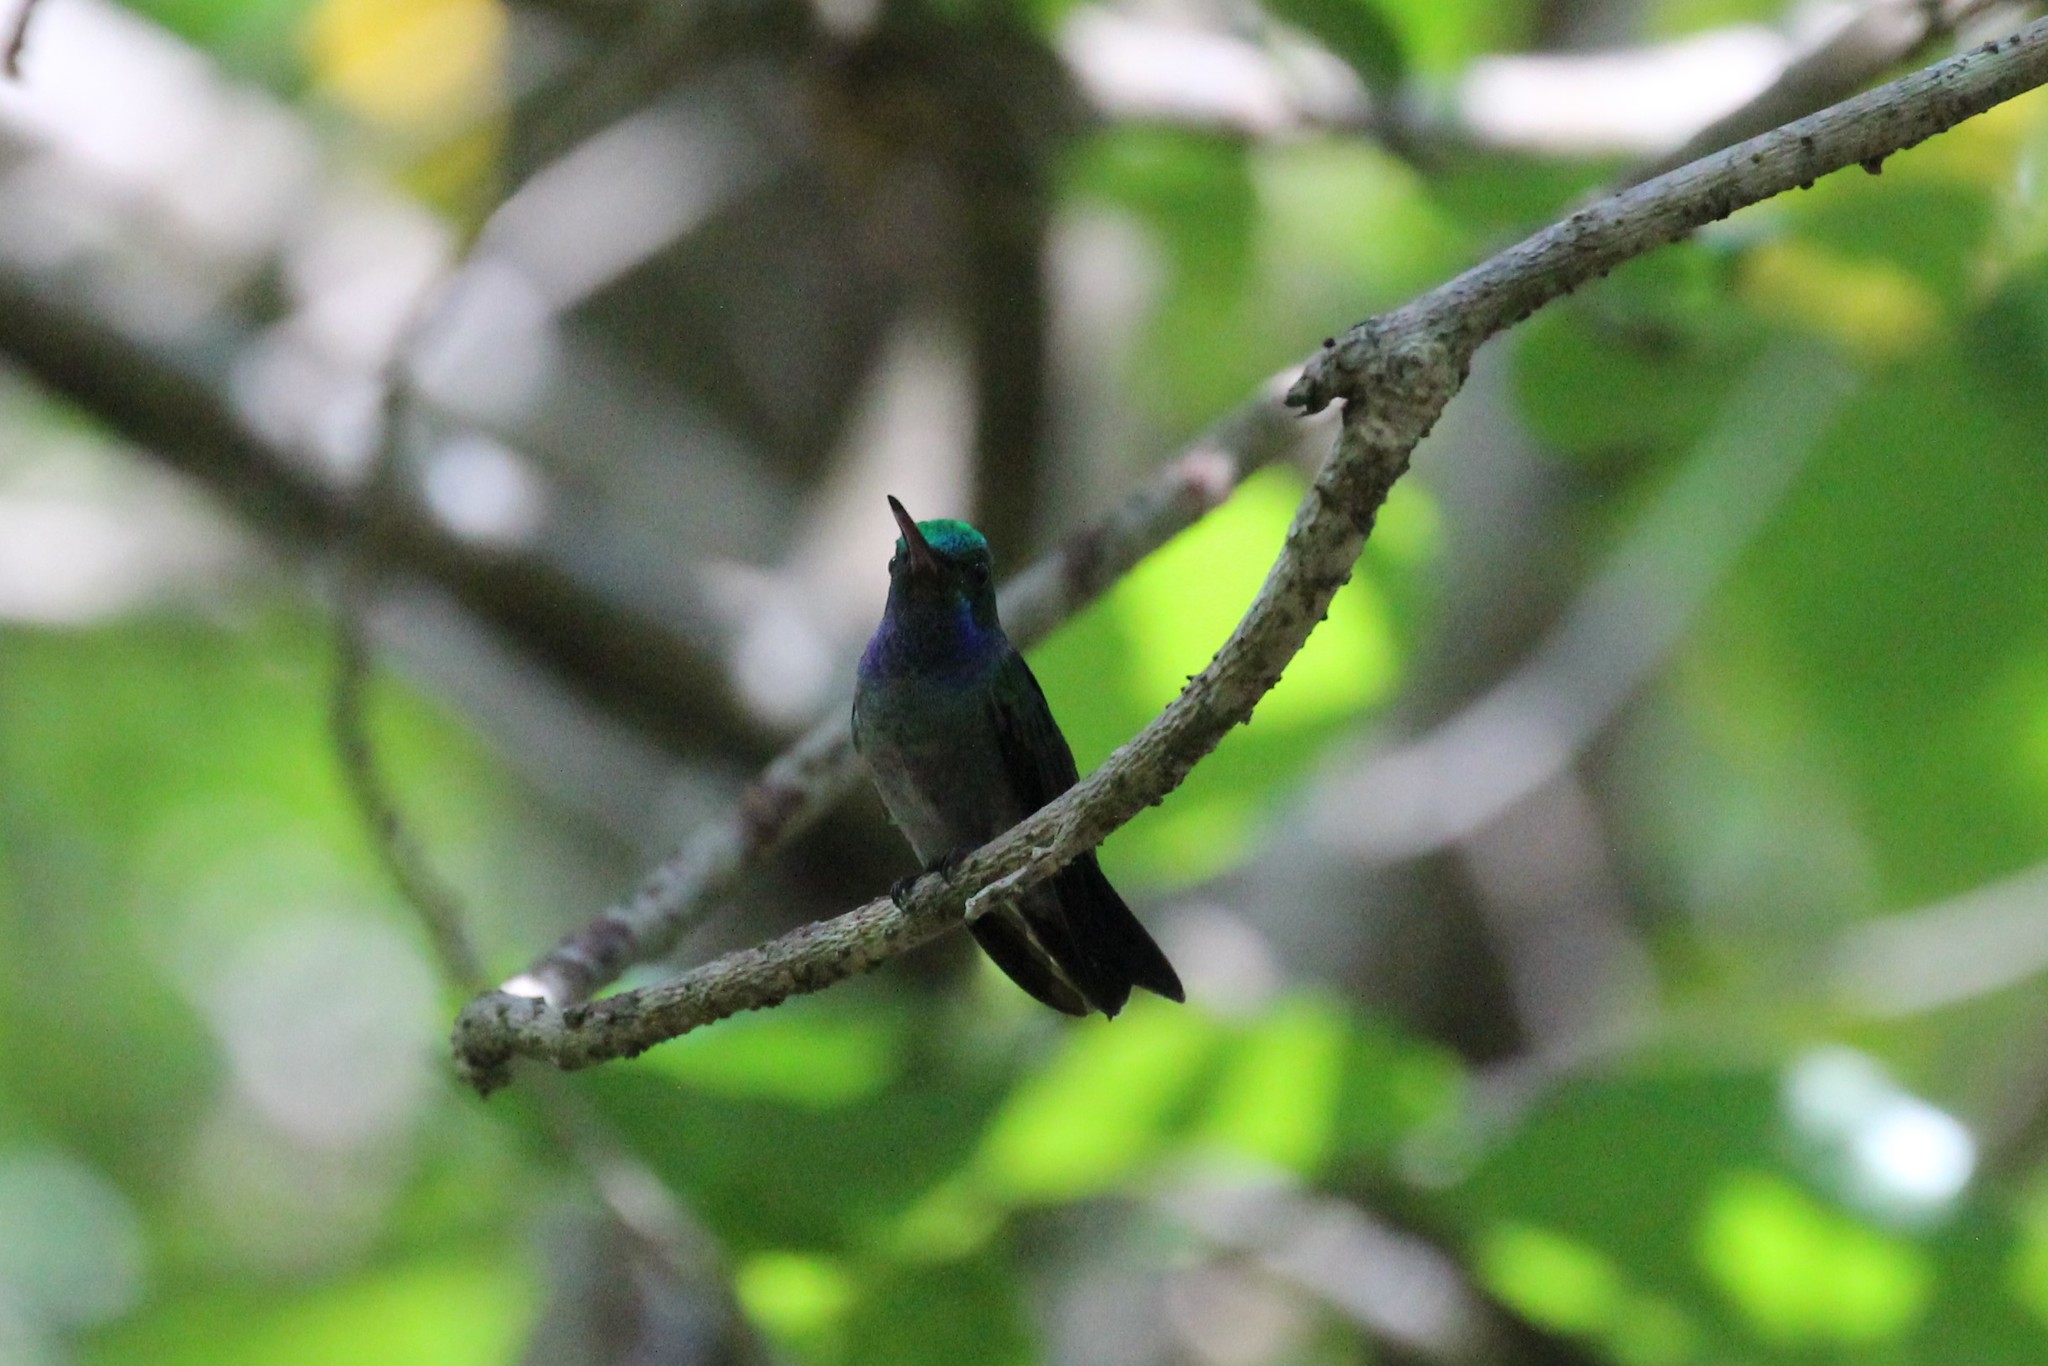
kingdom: Animalia
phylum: Chordata
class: Aves
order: Apodiformes
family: Trochilidae
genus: Polyerata
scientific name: Polyerata decora
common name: Charming hummingbird
